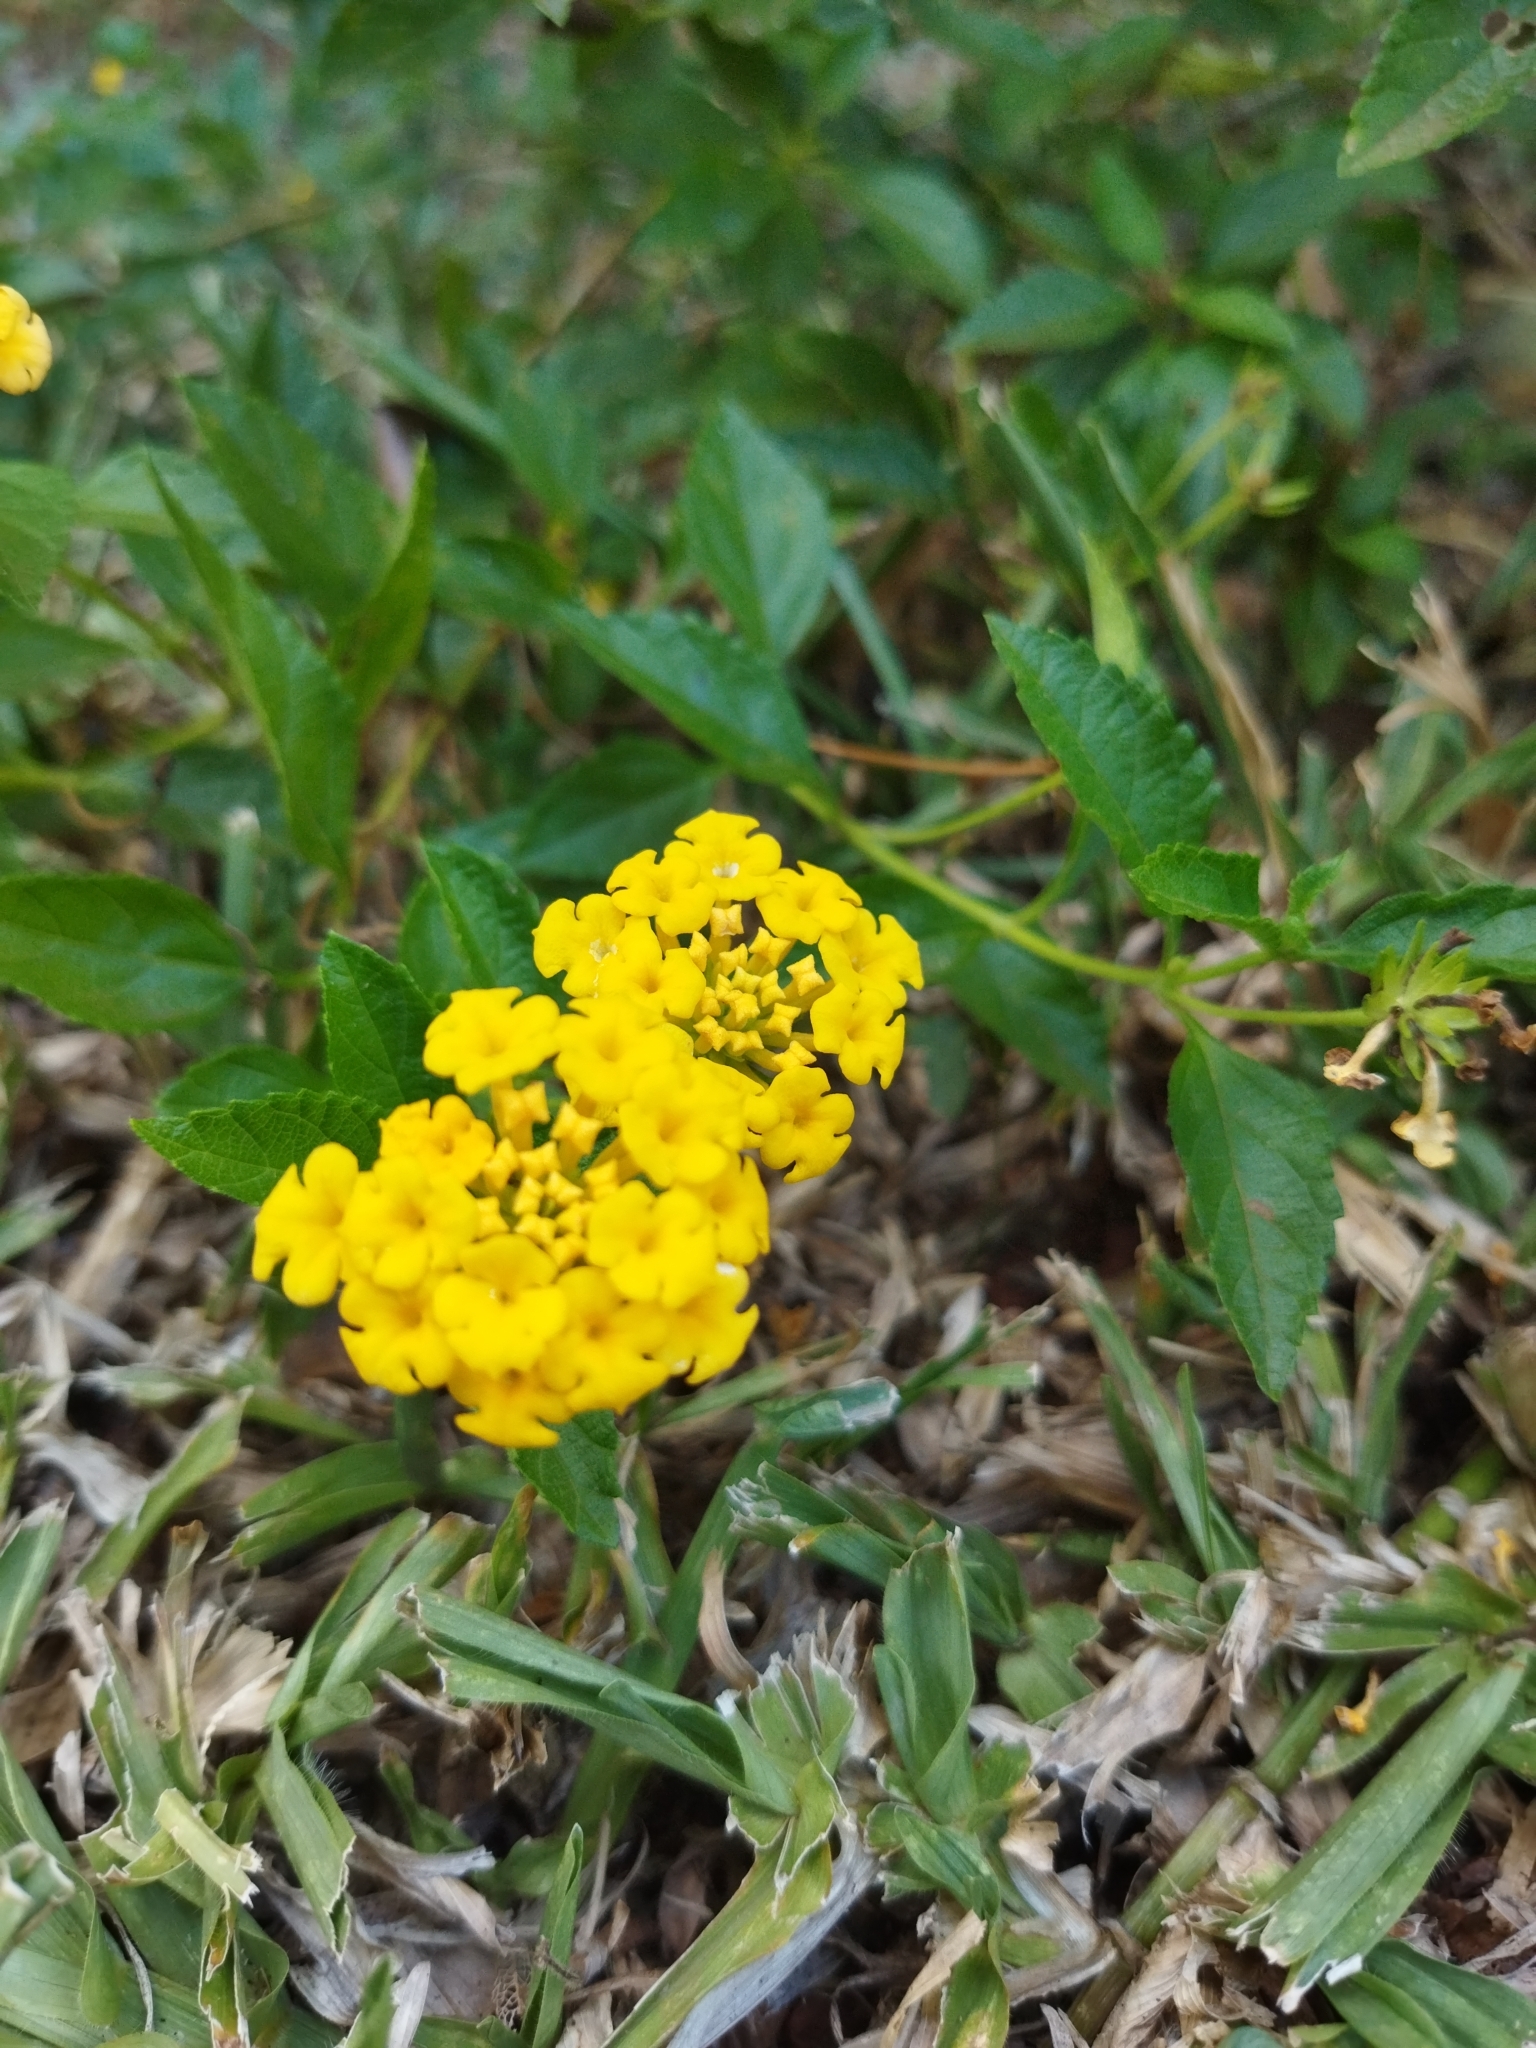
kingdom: Plantae
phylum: Tracheophyta
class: Magnoliopsida
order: Lamiales
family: Verbenaceae
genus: Lantana
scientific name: Lantana camara
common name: Lantana
